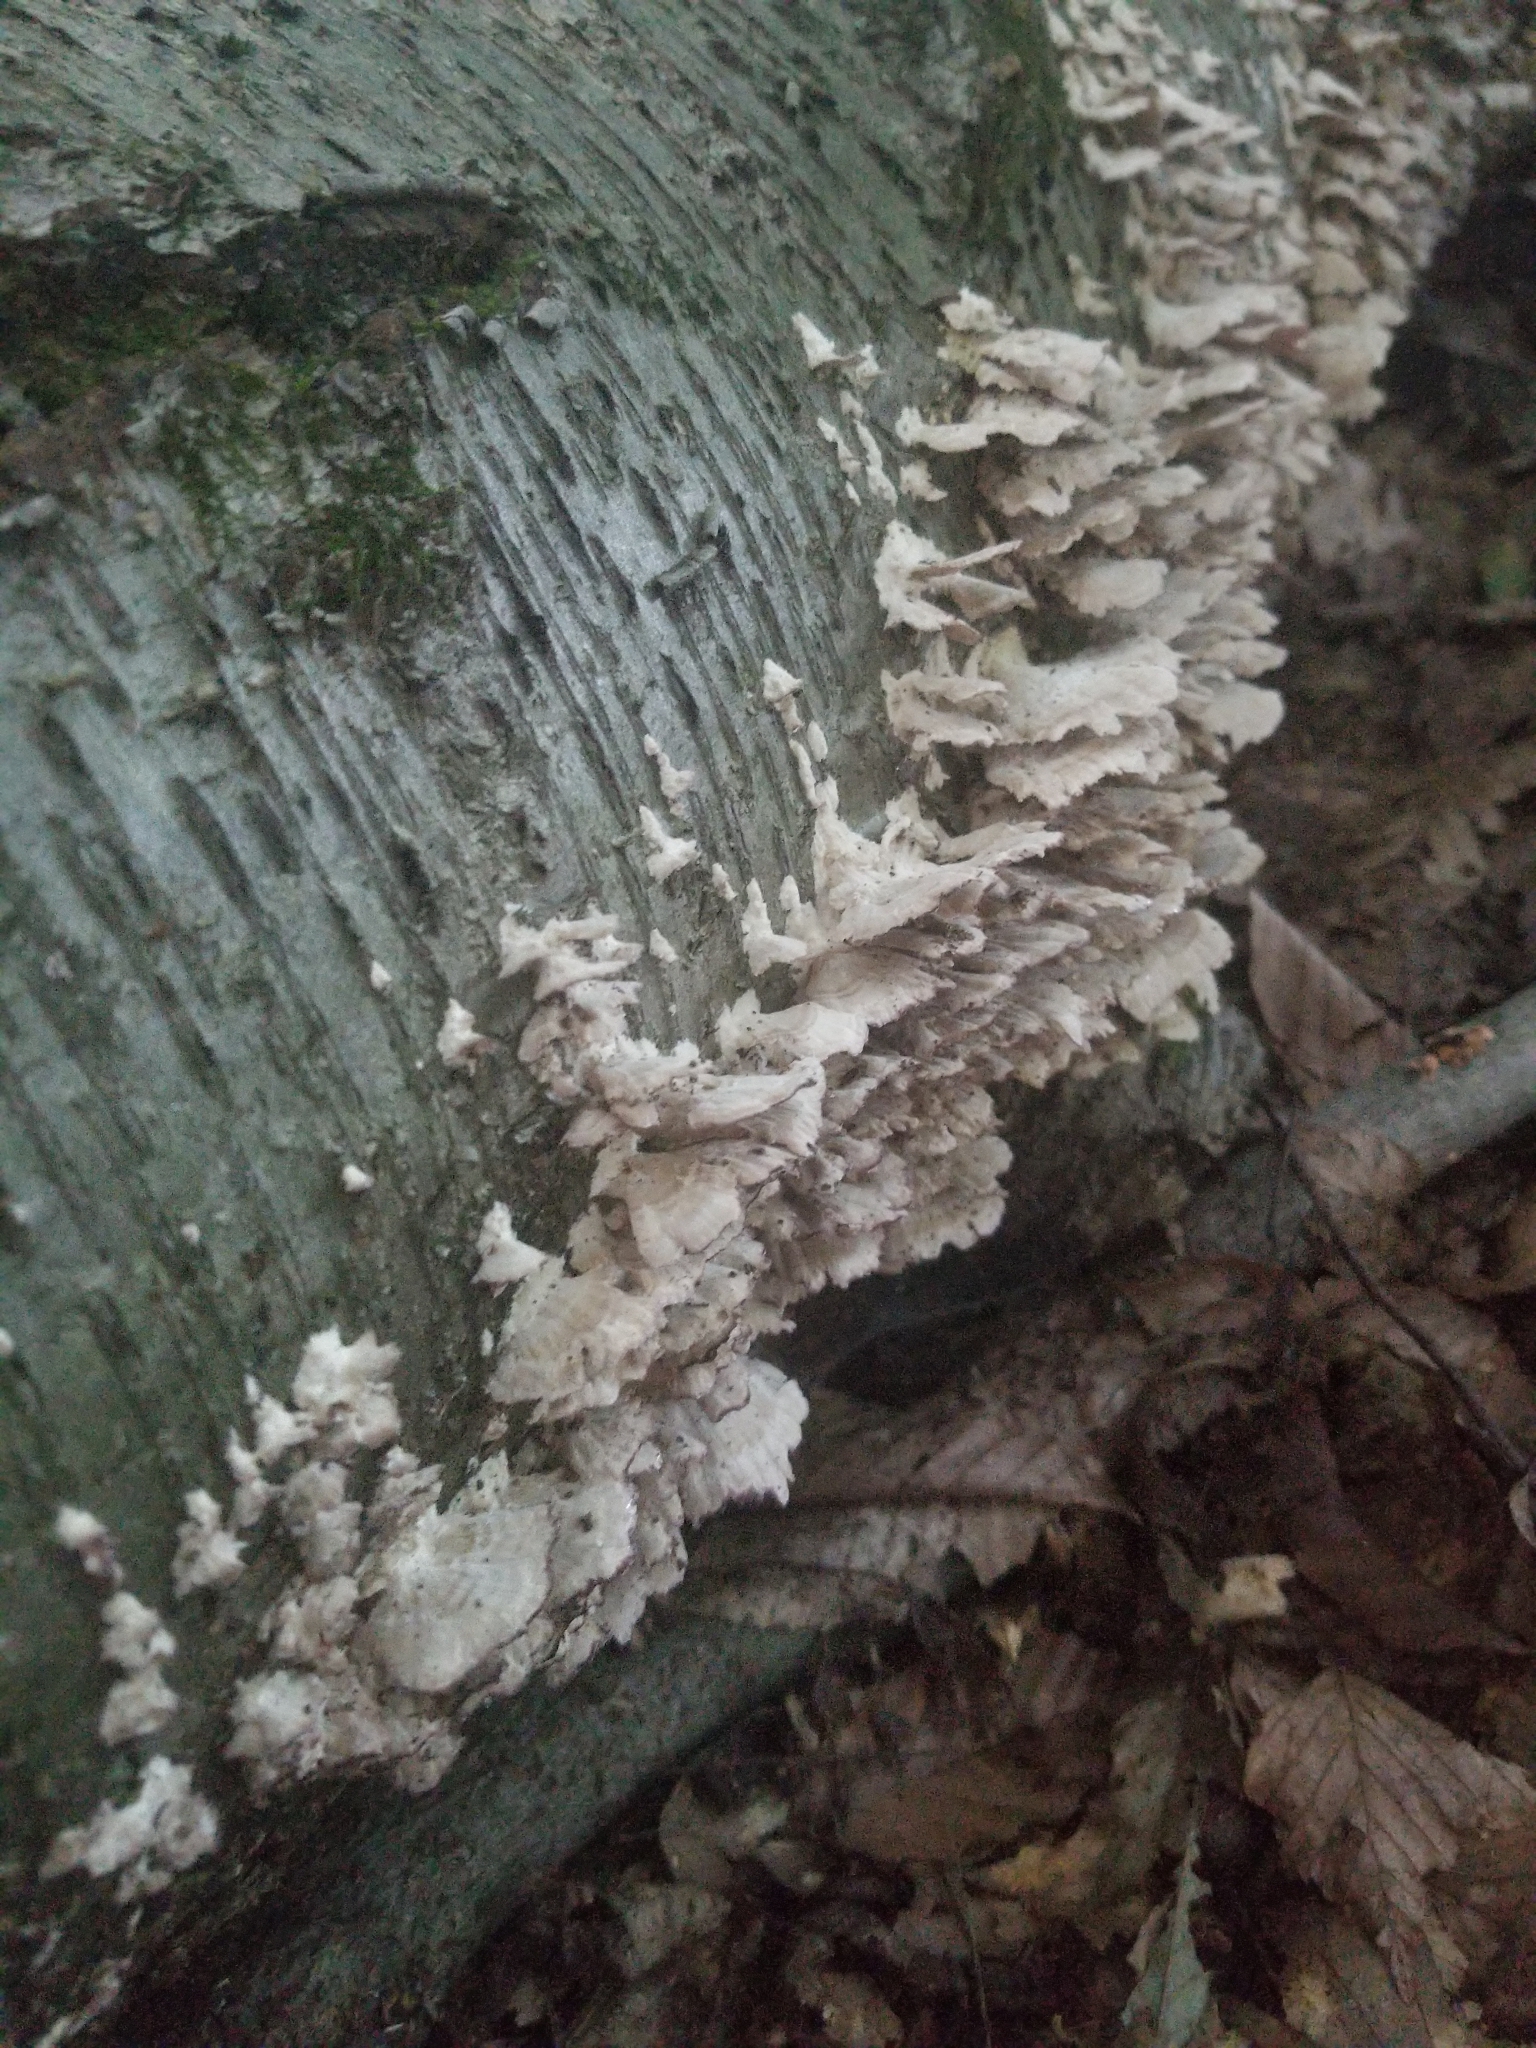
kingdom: Fungi
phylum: Basidiomycota
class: Agaricomycetes
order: Hymenochaetales
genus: Trichaptum
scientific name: Trichaptum biforme
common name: Violet-toothed polypore
